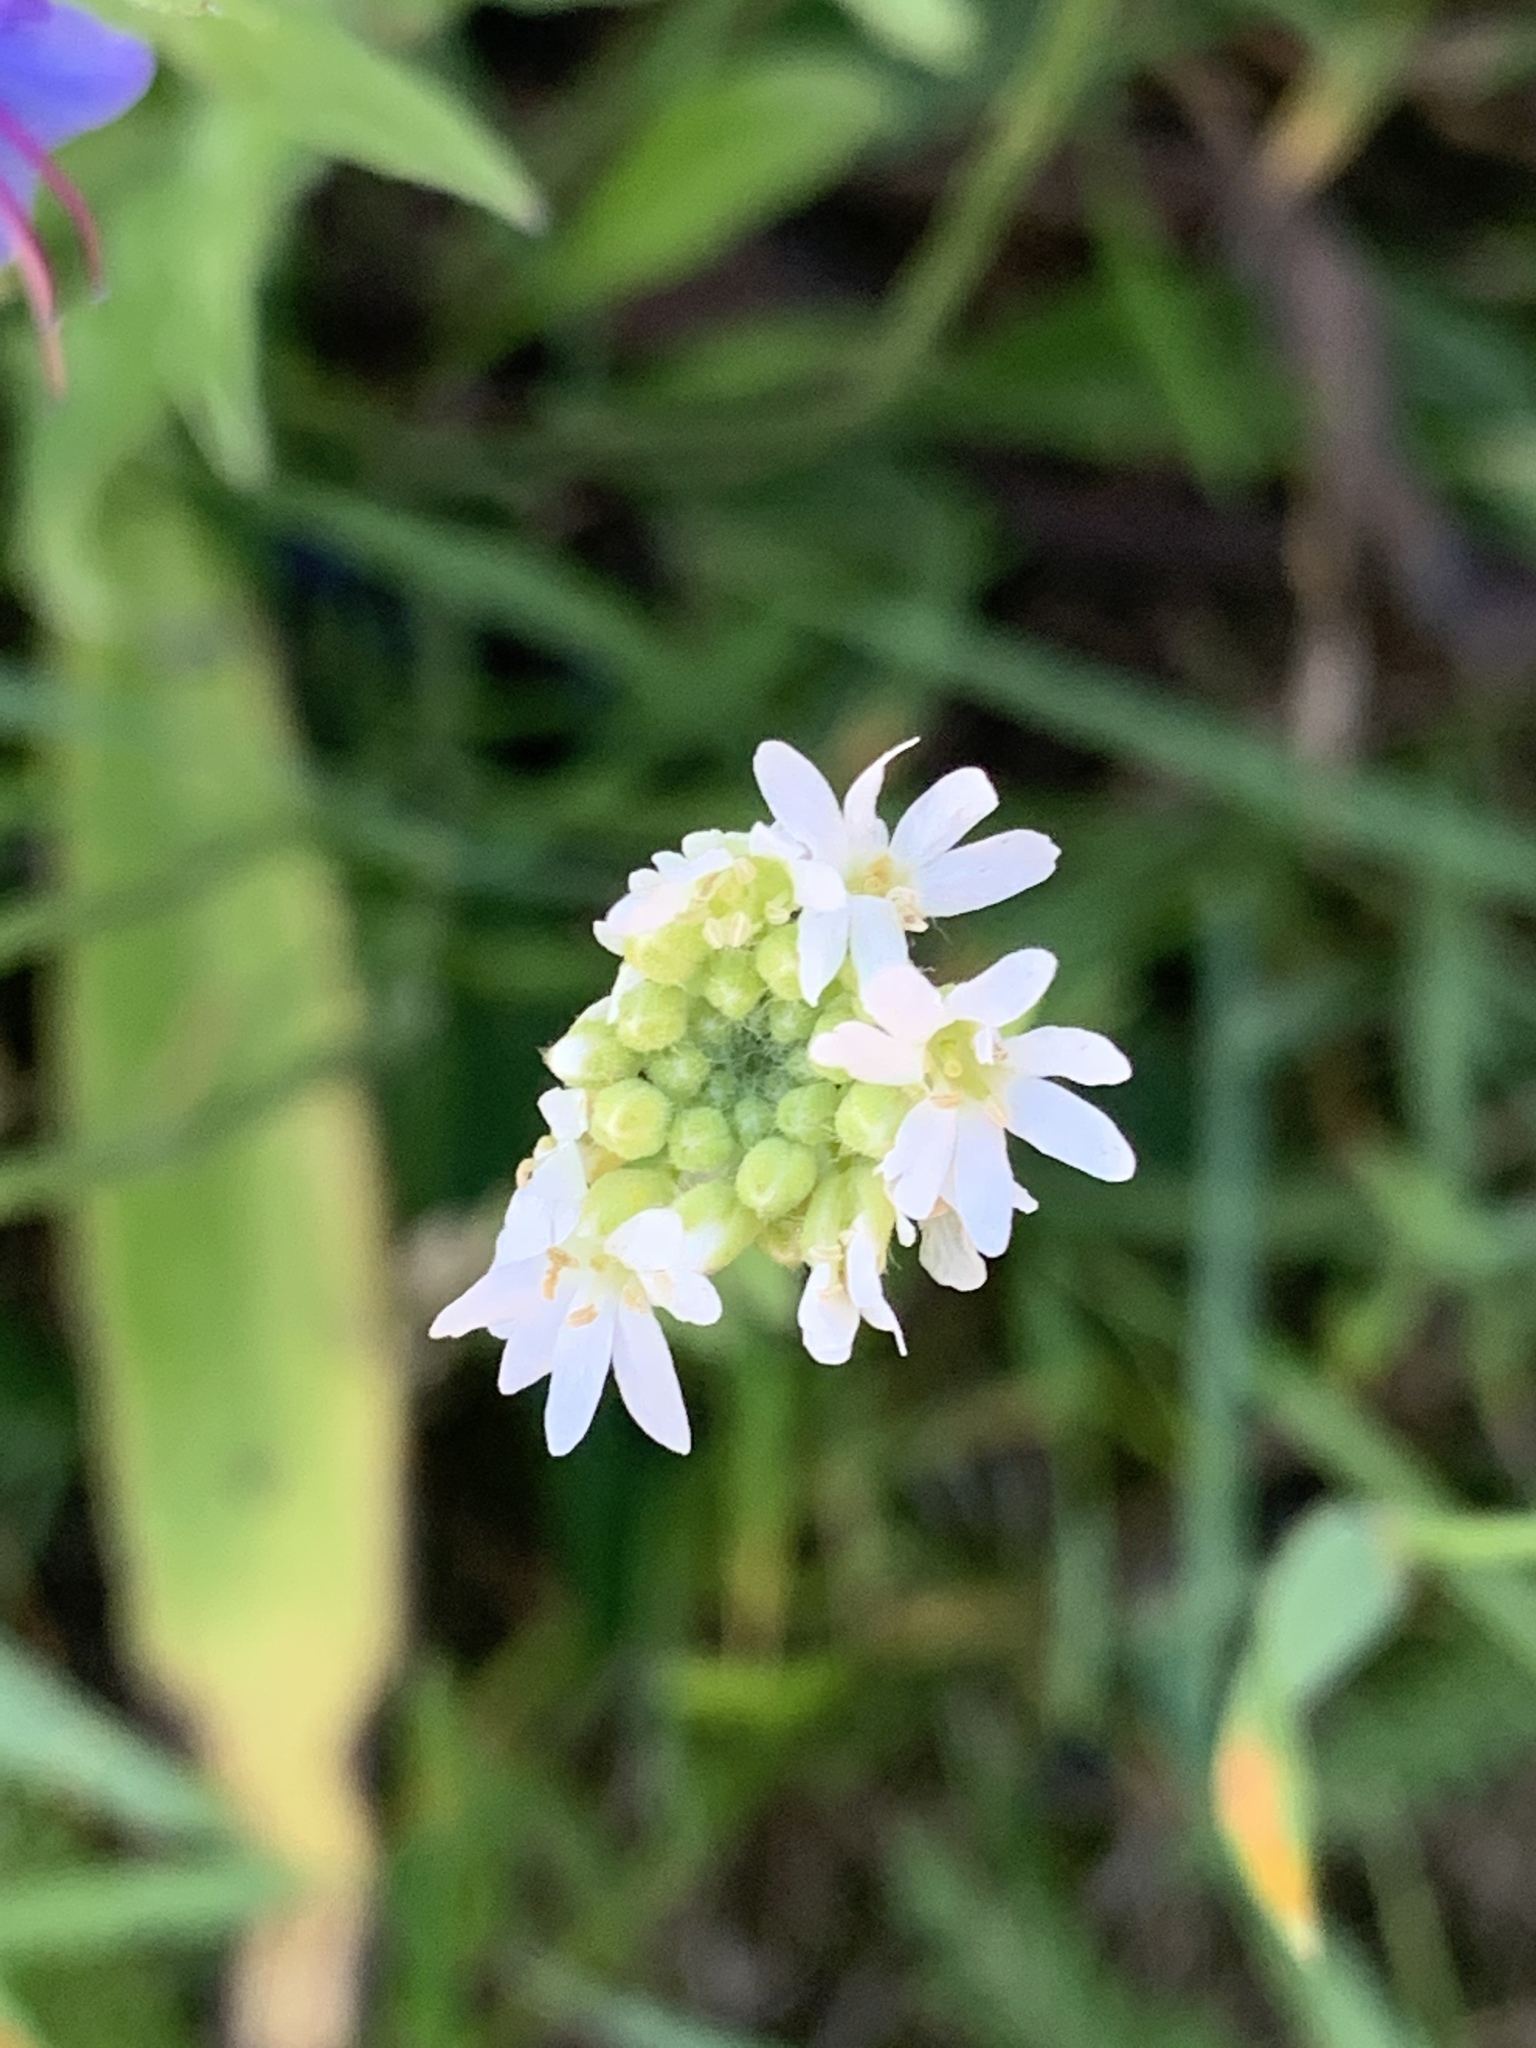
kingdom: Plantae
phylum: Tracheophyta
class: Magnoliopsida
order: Brassicales
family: Brassicaceae
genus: Berteroa
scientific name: Berteroa incana
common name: Hoary alison
